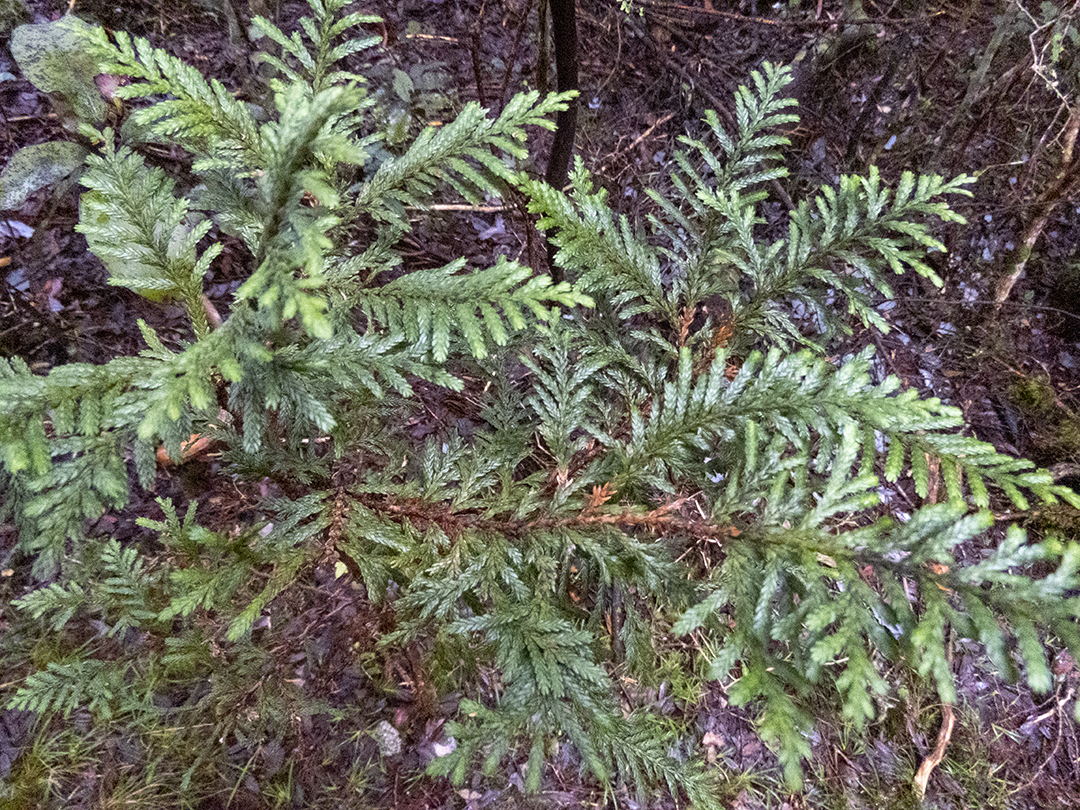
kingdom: Plantae
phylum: Tracheophyta
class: Pinopsida
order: Pinales
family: Cupressaceae
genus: Libocedrus
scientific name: Libocedrus bidwillii
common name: Cedar
